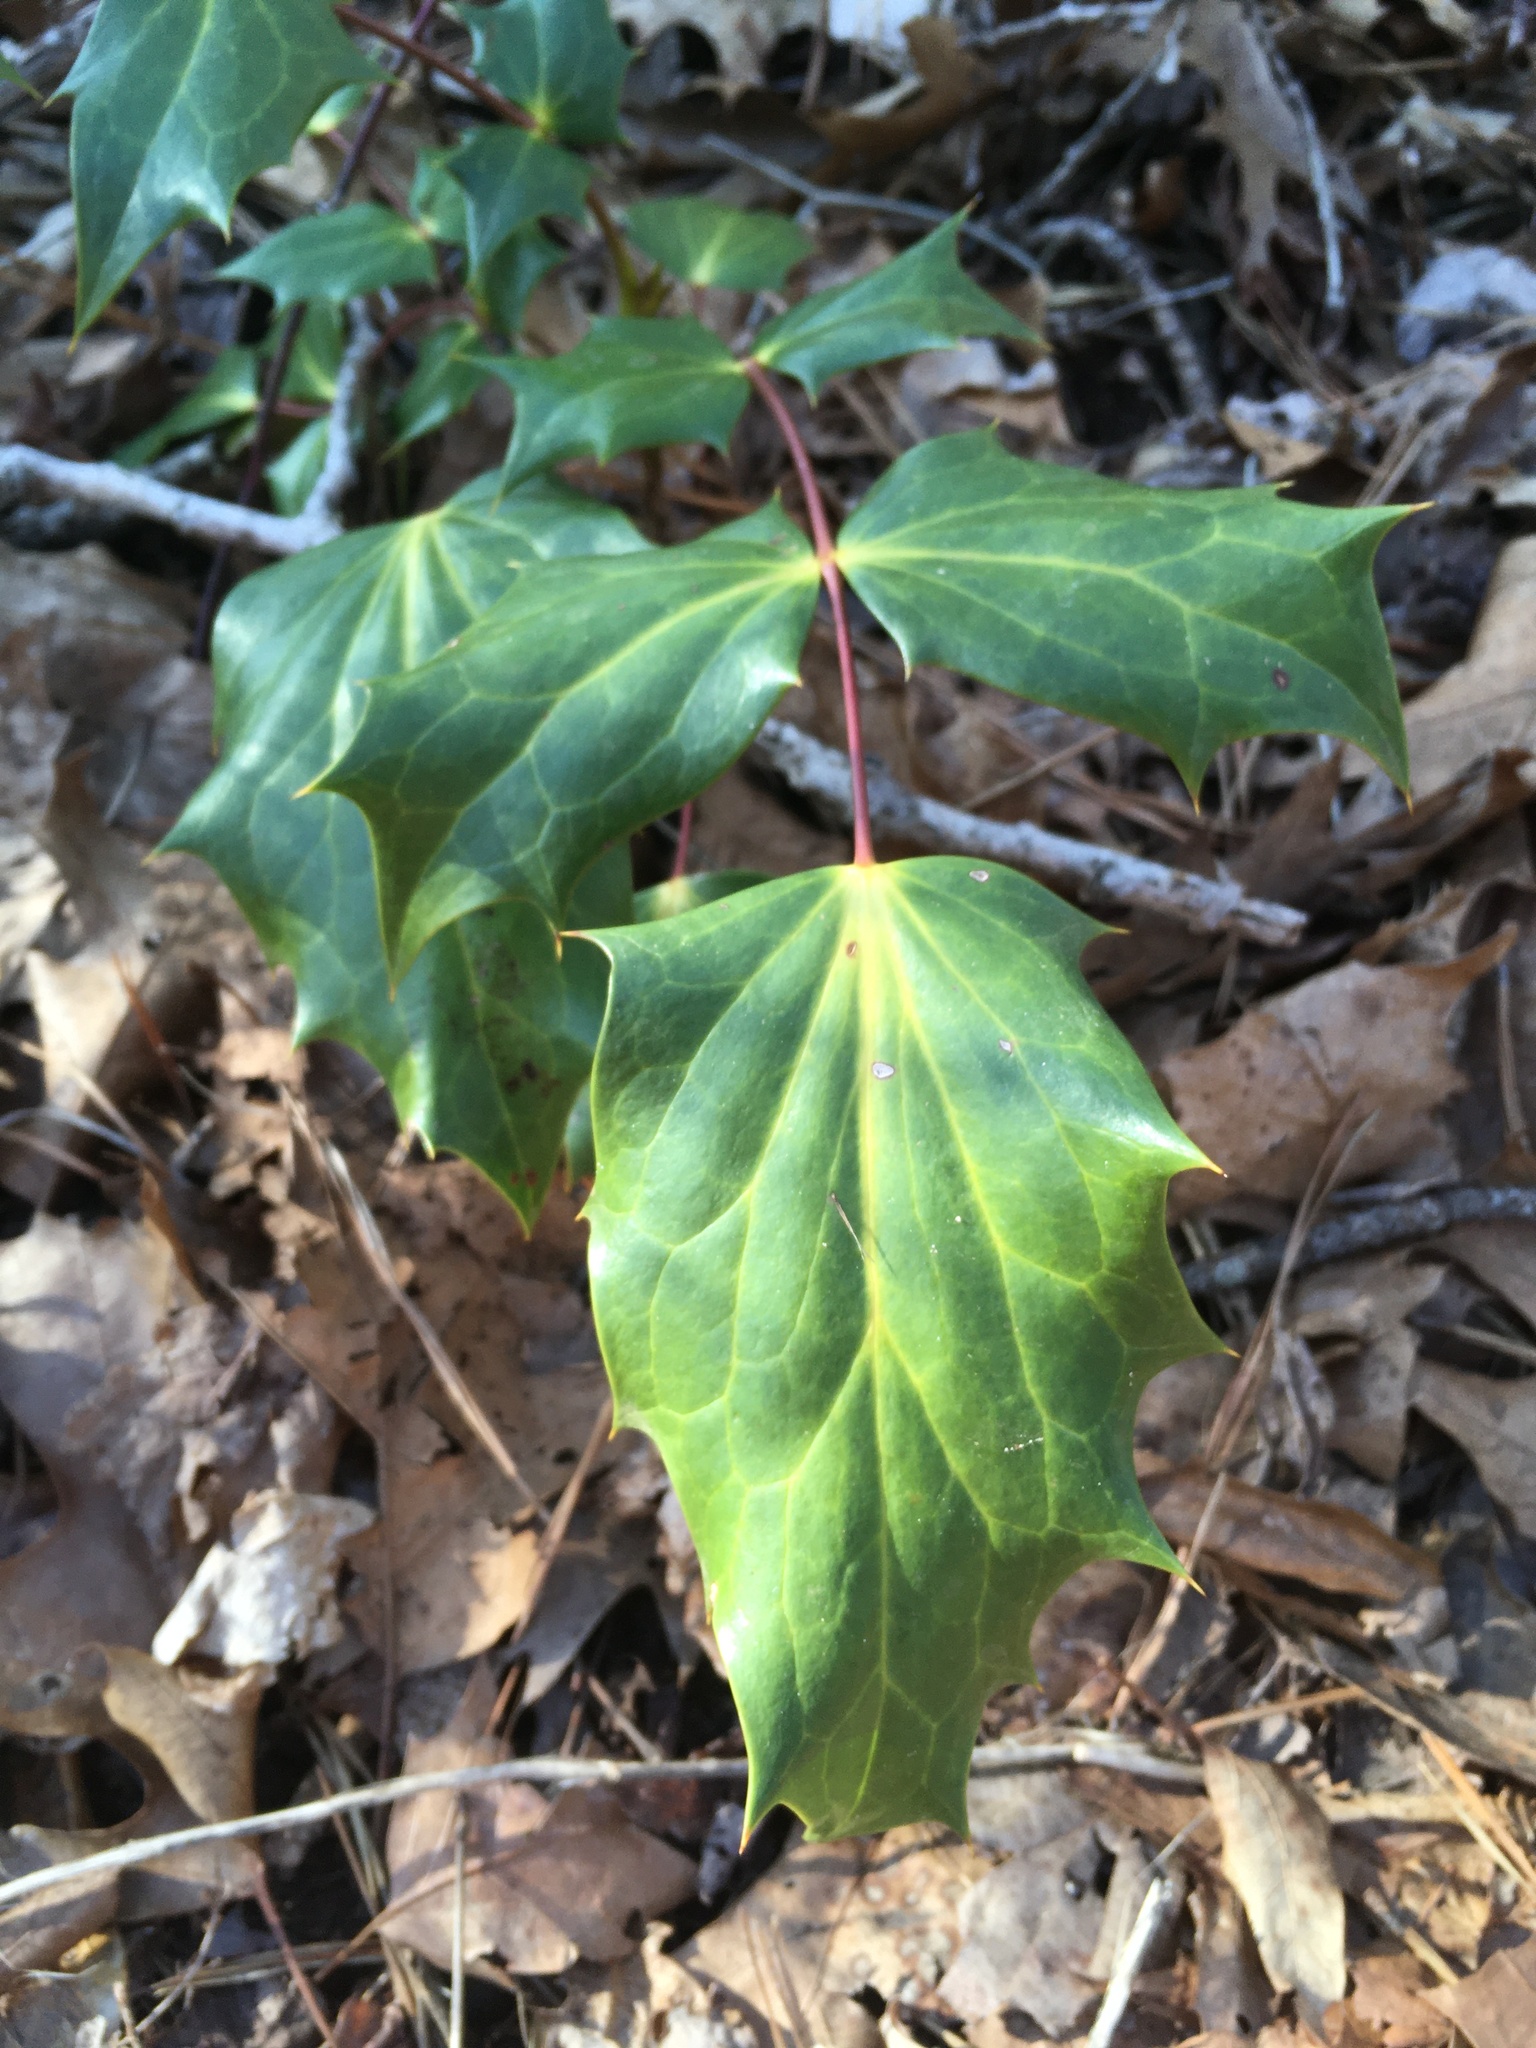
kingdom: Plantae
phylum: Tracheophyta
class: Magnoliopsida
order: Ranunculales
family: Berberidaceae
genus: Mahonia
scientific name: Mahonia bealei
